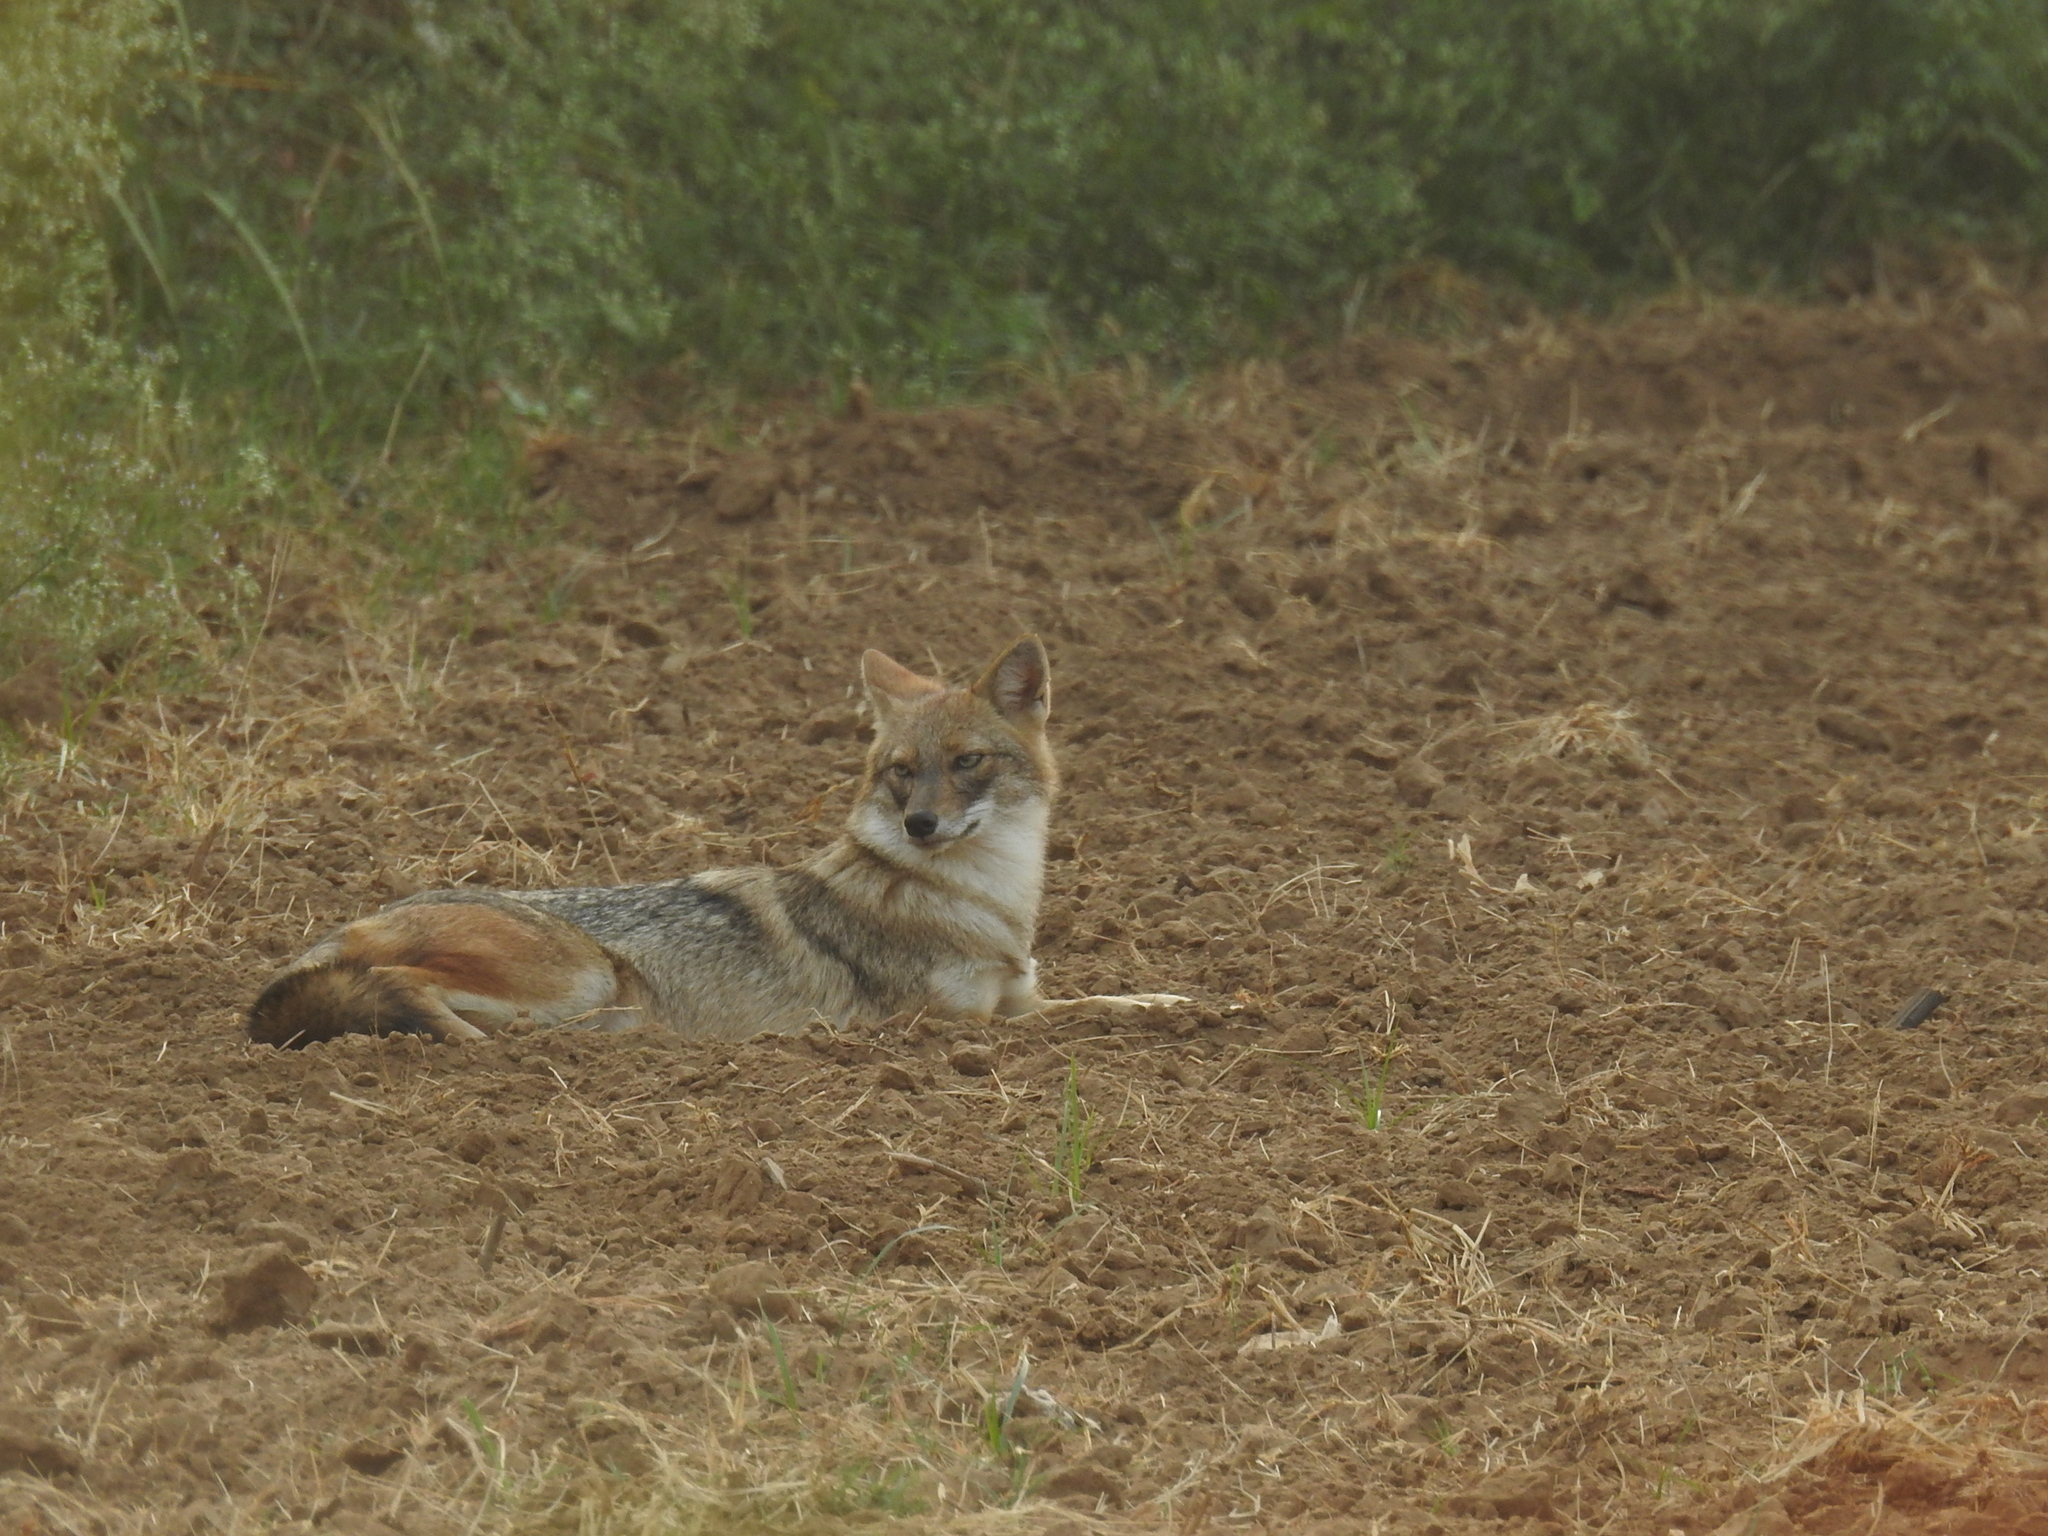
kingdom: Animalia
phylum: Chordata
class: Mammalia
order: Carnivora
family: Canidae
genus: Canis
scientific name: Canis aureus
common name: Golden jackal
